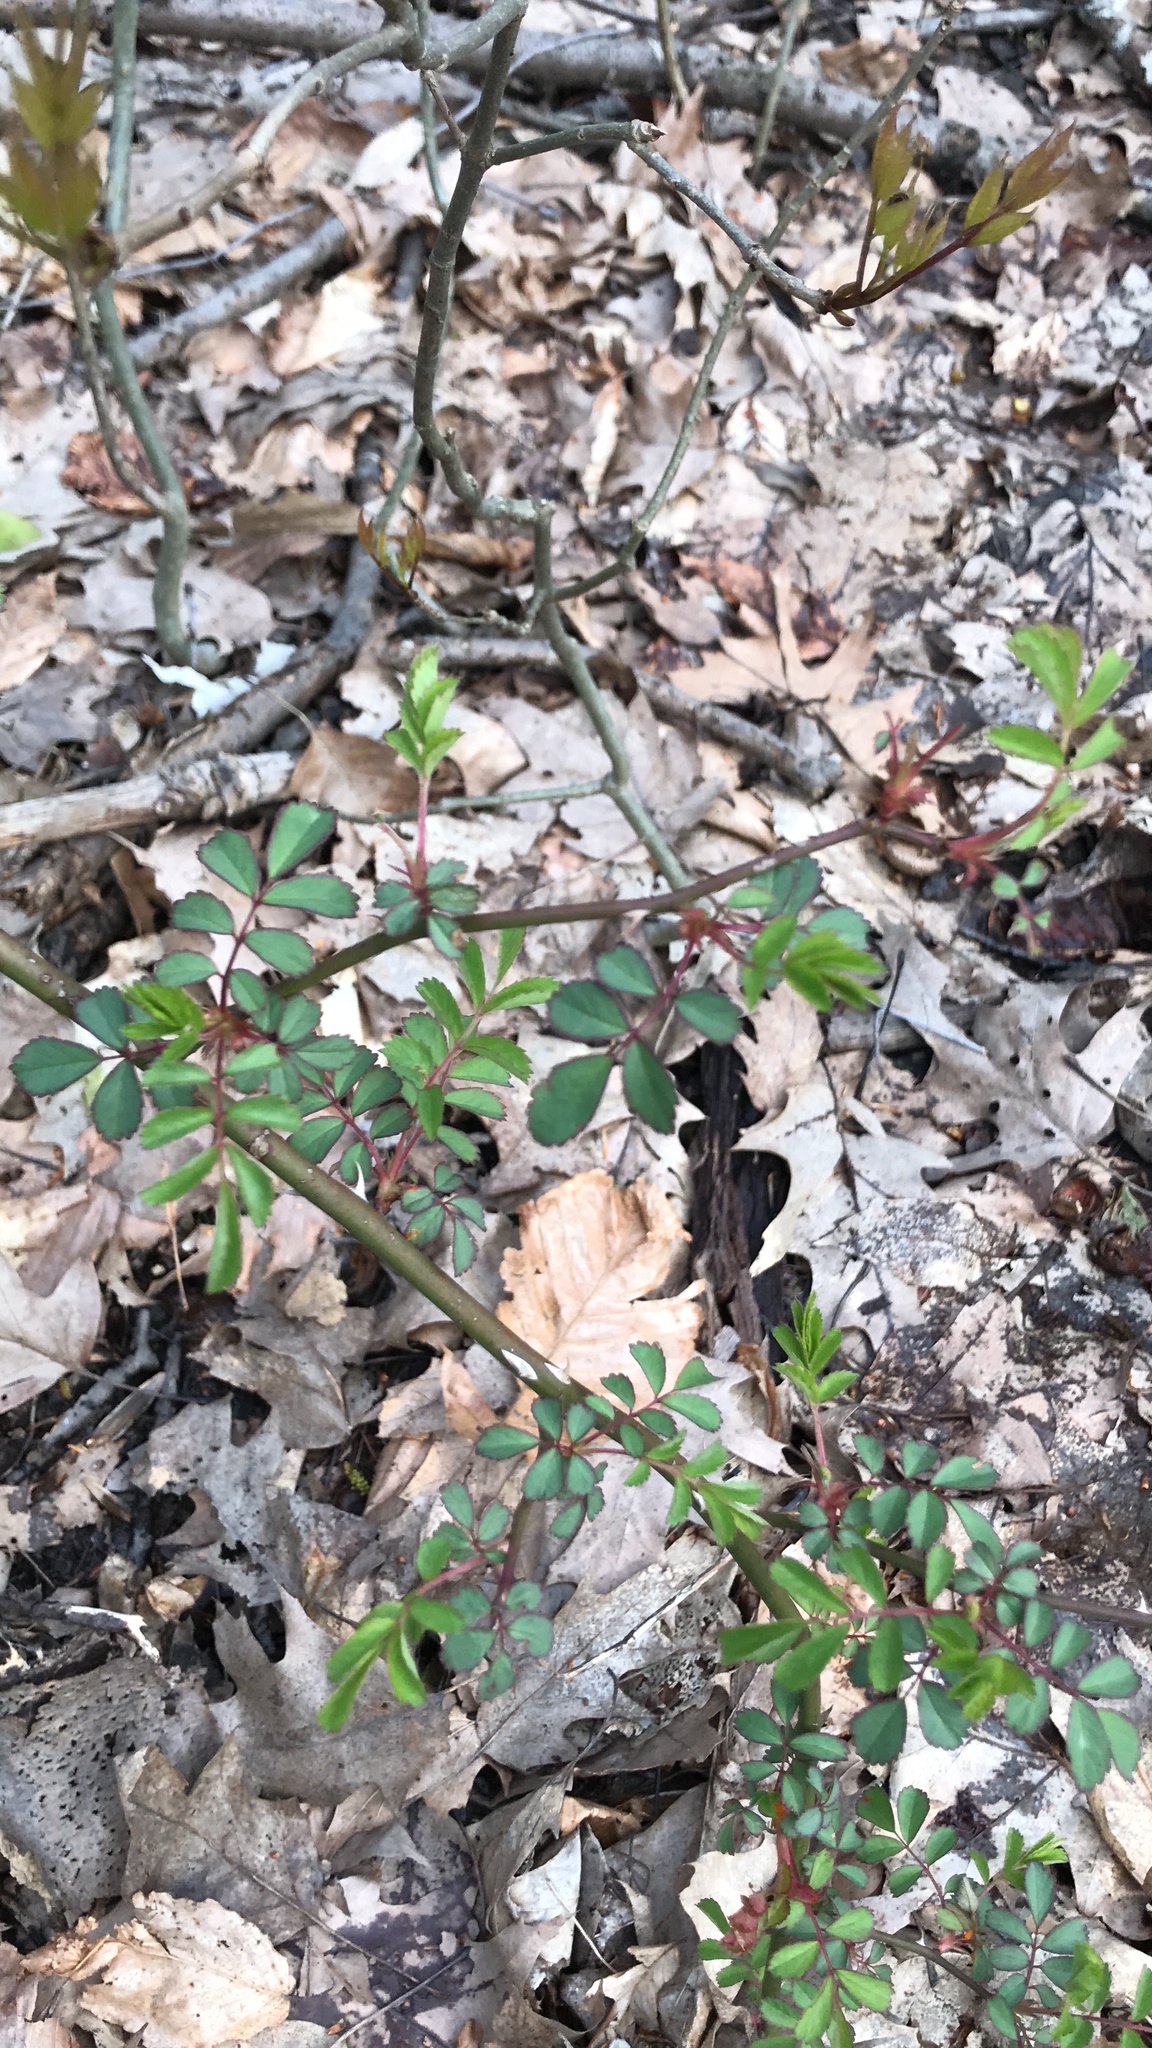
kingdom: Plantae
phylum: Tracheophyta
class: Magnoliopsida
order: Rosales
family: Rosaceae
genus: Rosa
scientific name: Rosa multiflora
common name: Multiflora rose
